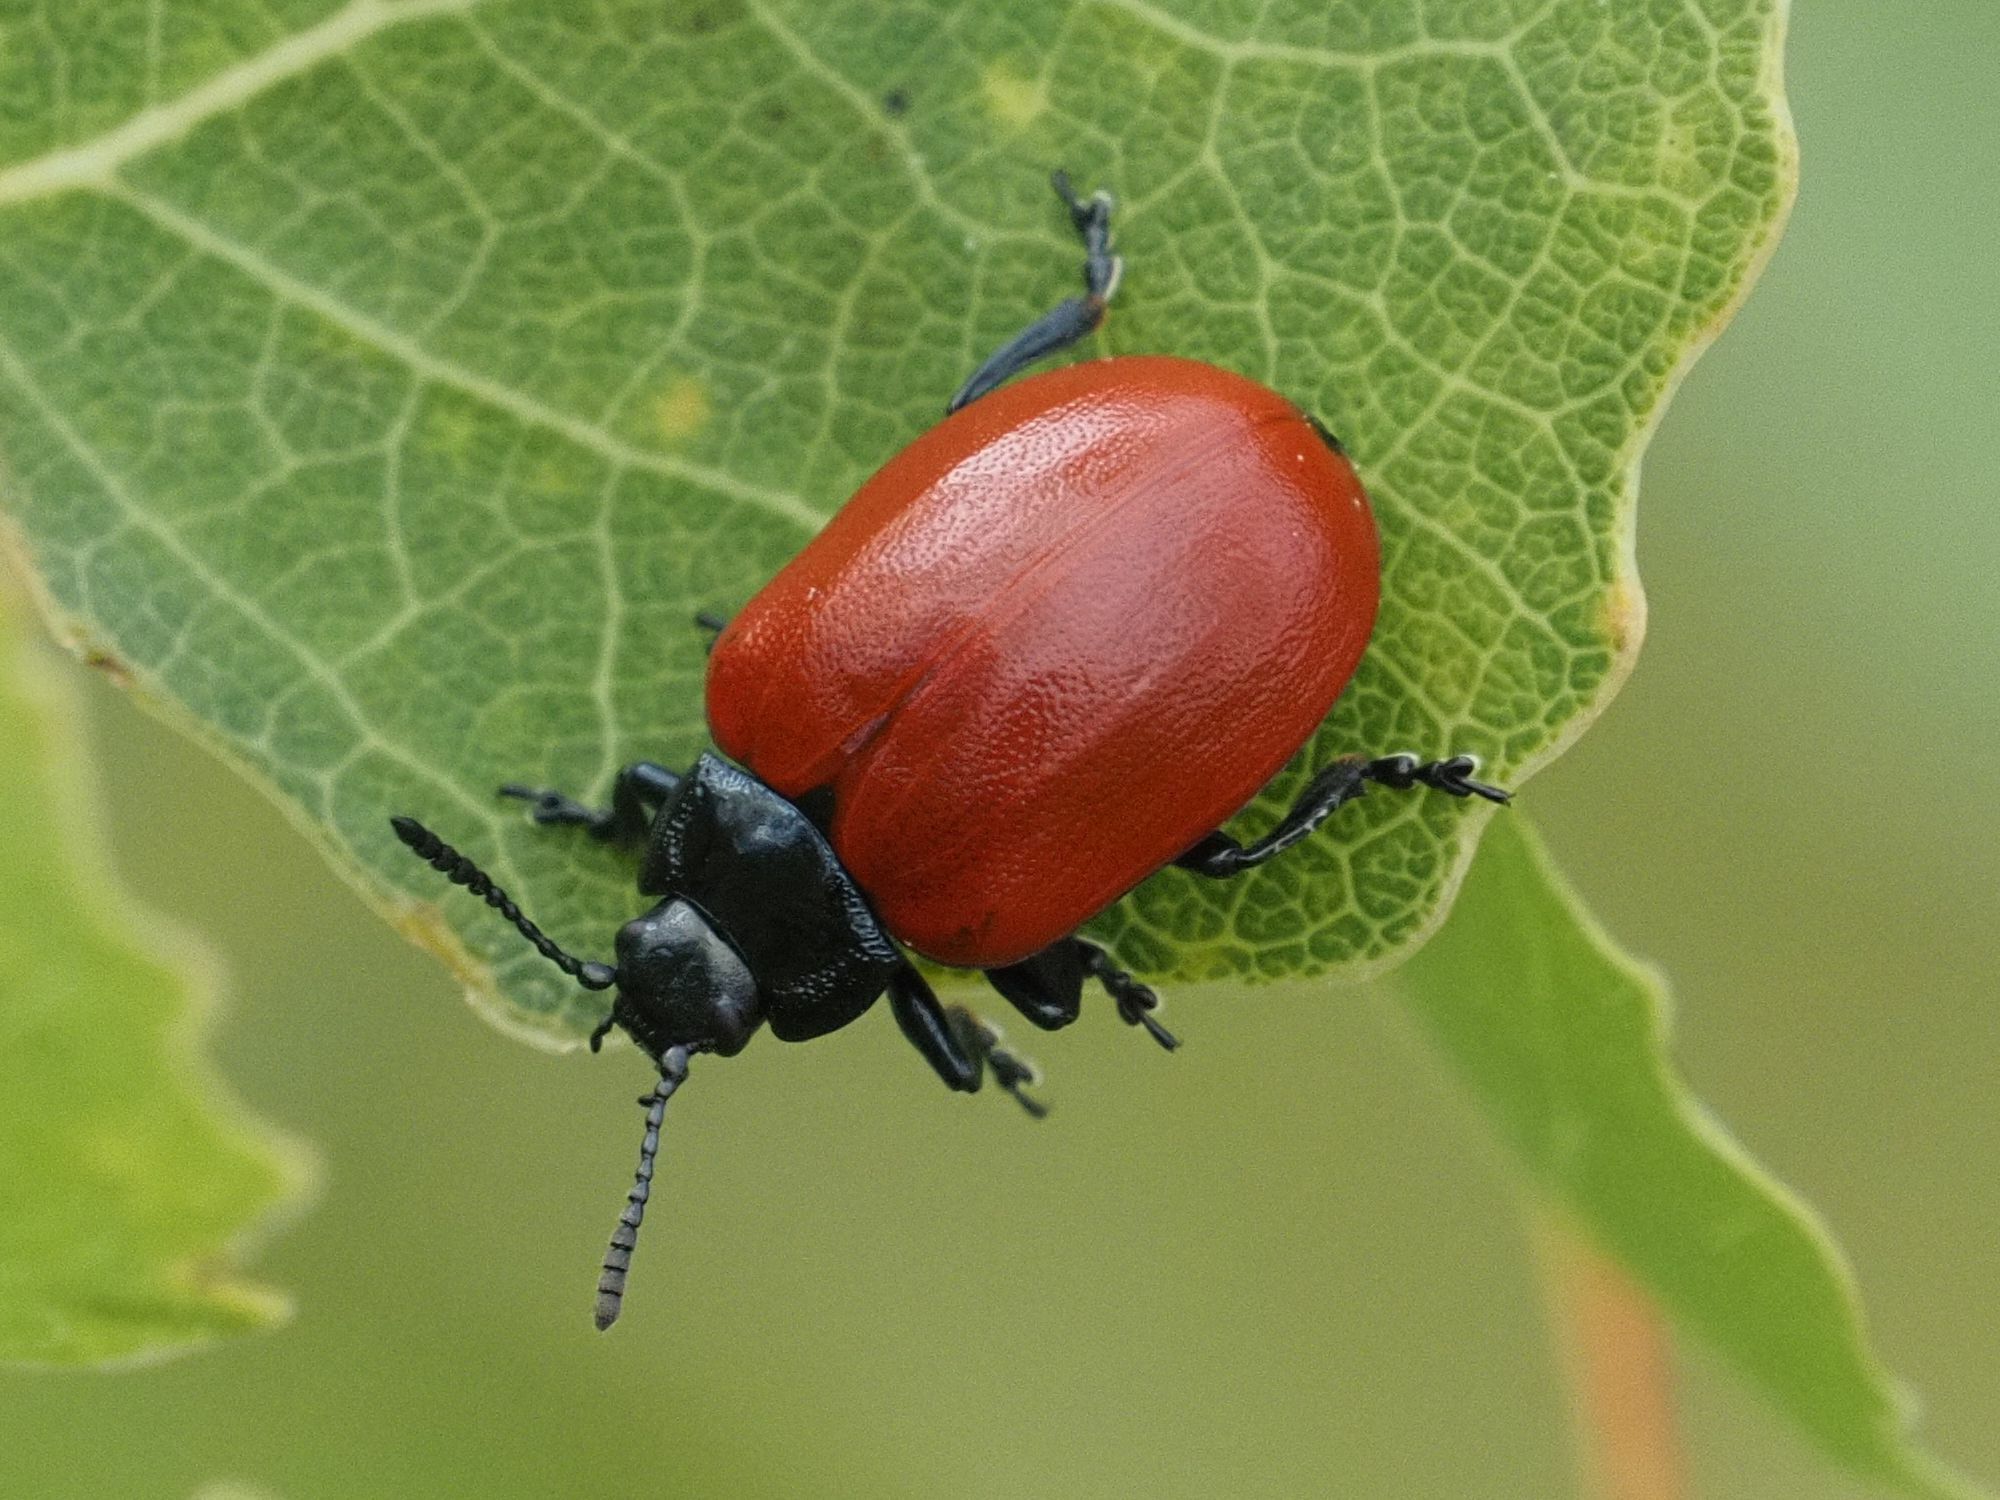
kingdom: Animalia
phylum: Arthropoda
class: Insecta
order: Coleoptera
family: Chrysomelidae
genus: Chrysomela
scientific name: Chrysomela populi
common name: Red poplar leaf beetle
